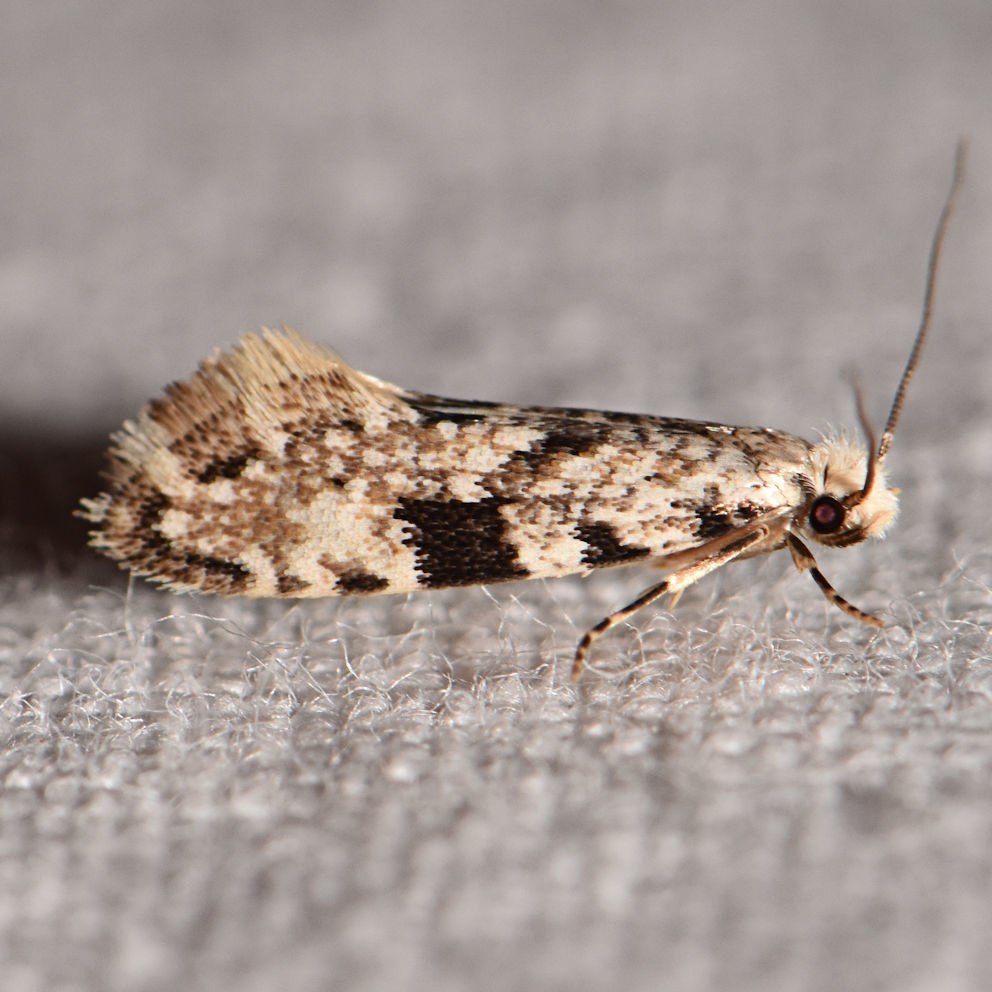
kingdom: Animalia
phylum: Arthropoda
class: Insecta
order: Lepidoptera
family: Tineidae
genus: Nemapogon
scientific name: Nemapogon auropulvella
